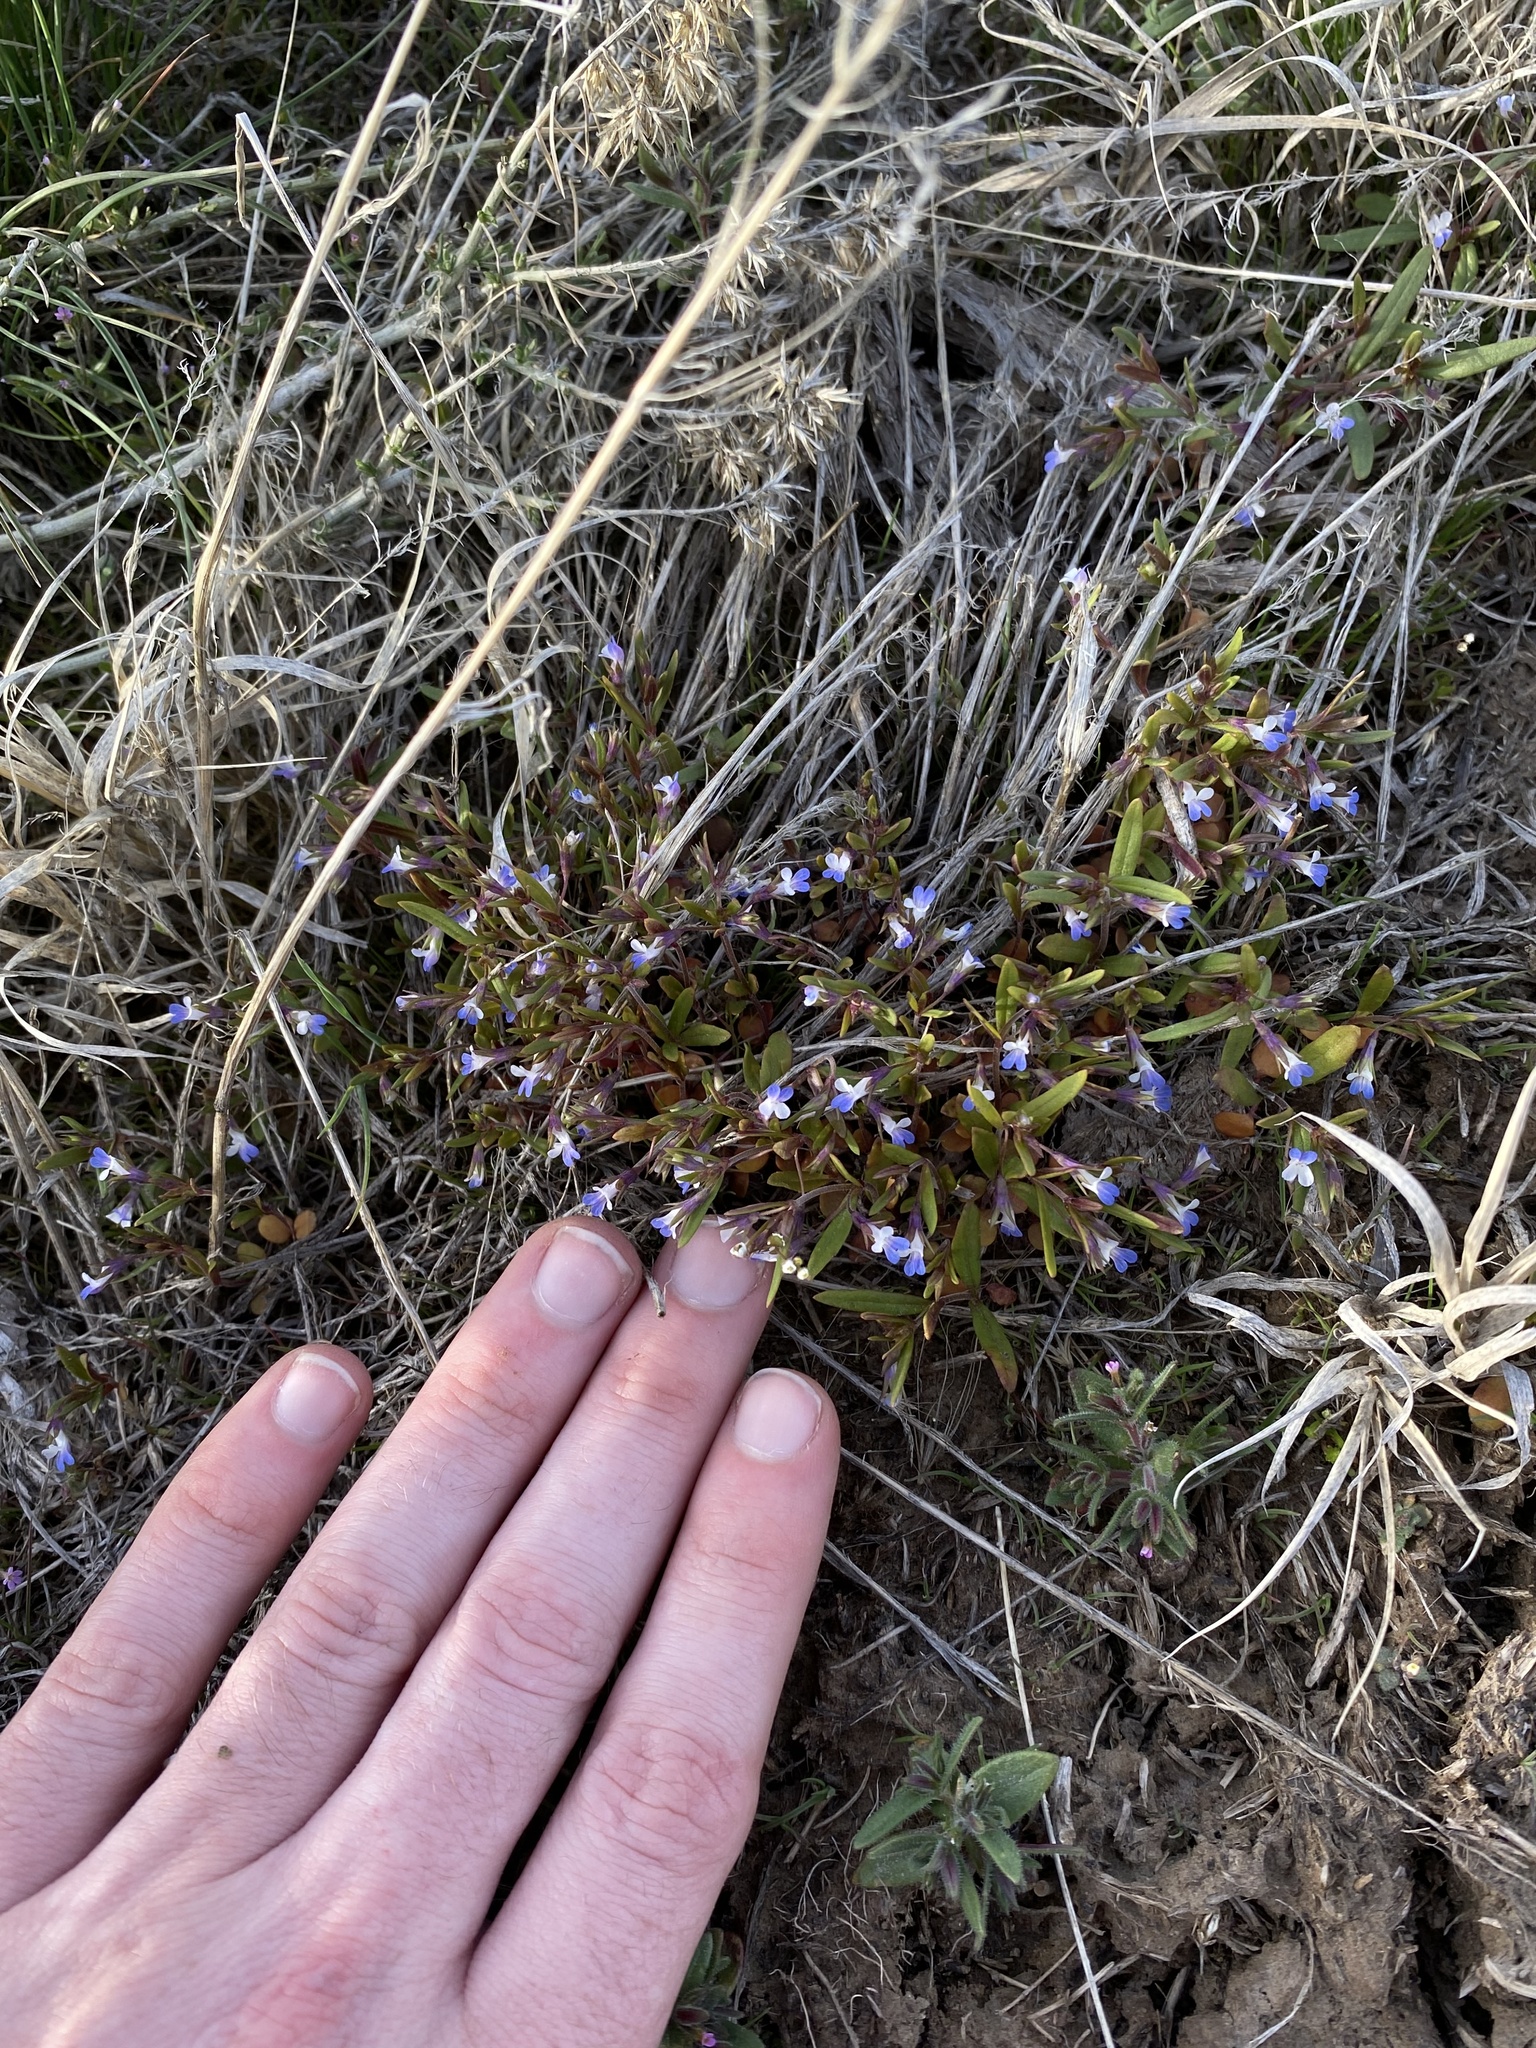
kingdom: Plantae
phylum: Tracheophyta
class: Magnoliopsida
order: Lamiales
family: Plantaginaceae
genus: Collinsia
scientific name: Collinsia parviflora
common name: Blue-lips
